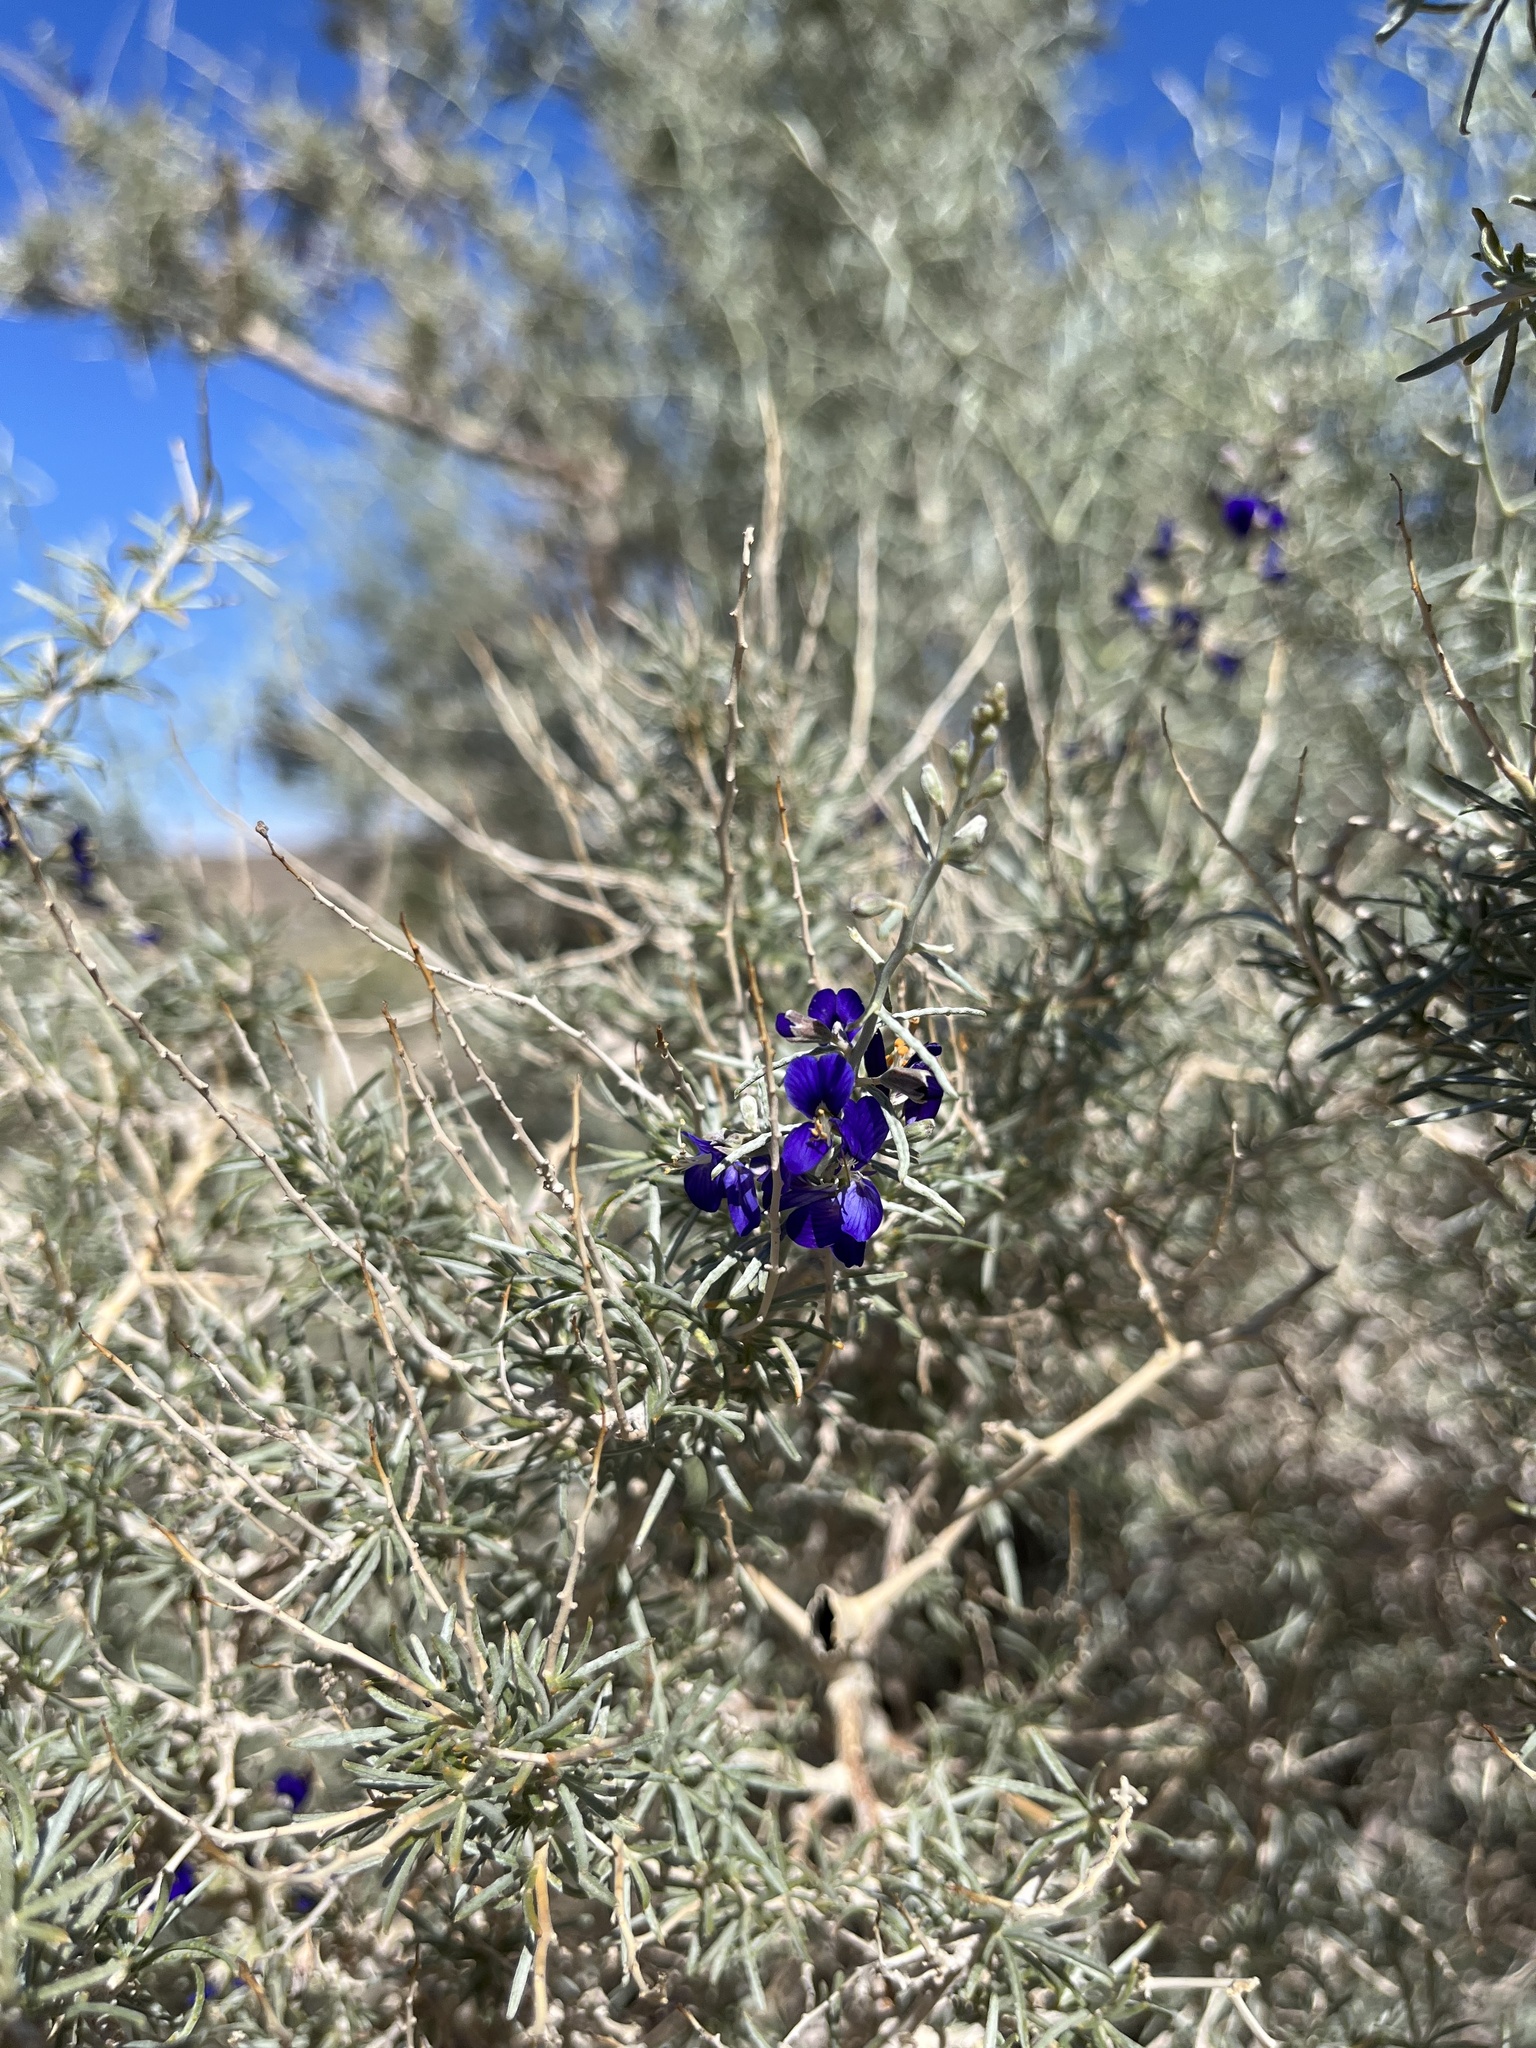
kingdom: Plantae
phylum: Tracheophyta
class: Magnoliopsida
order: Fabales
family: Fabaceae
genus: Psorothamnus
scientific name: Psorothamnus schottii
